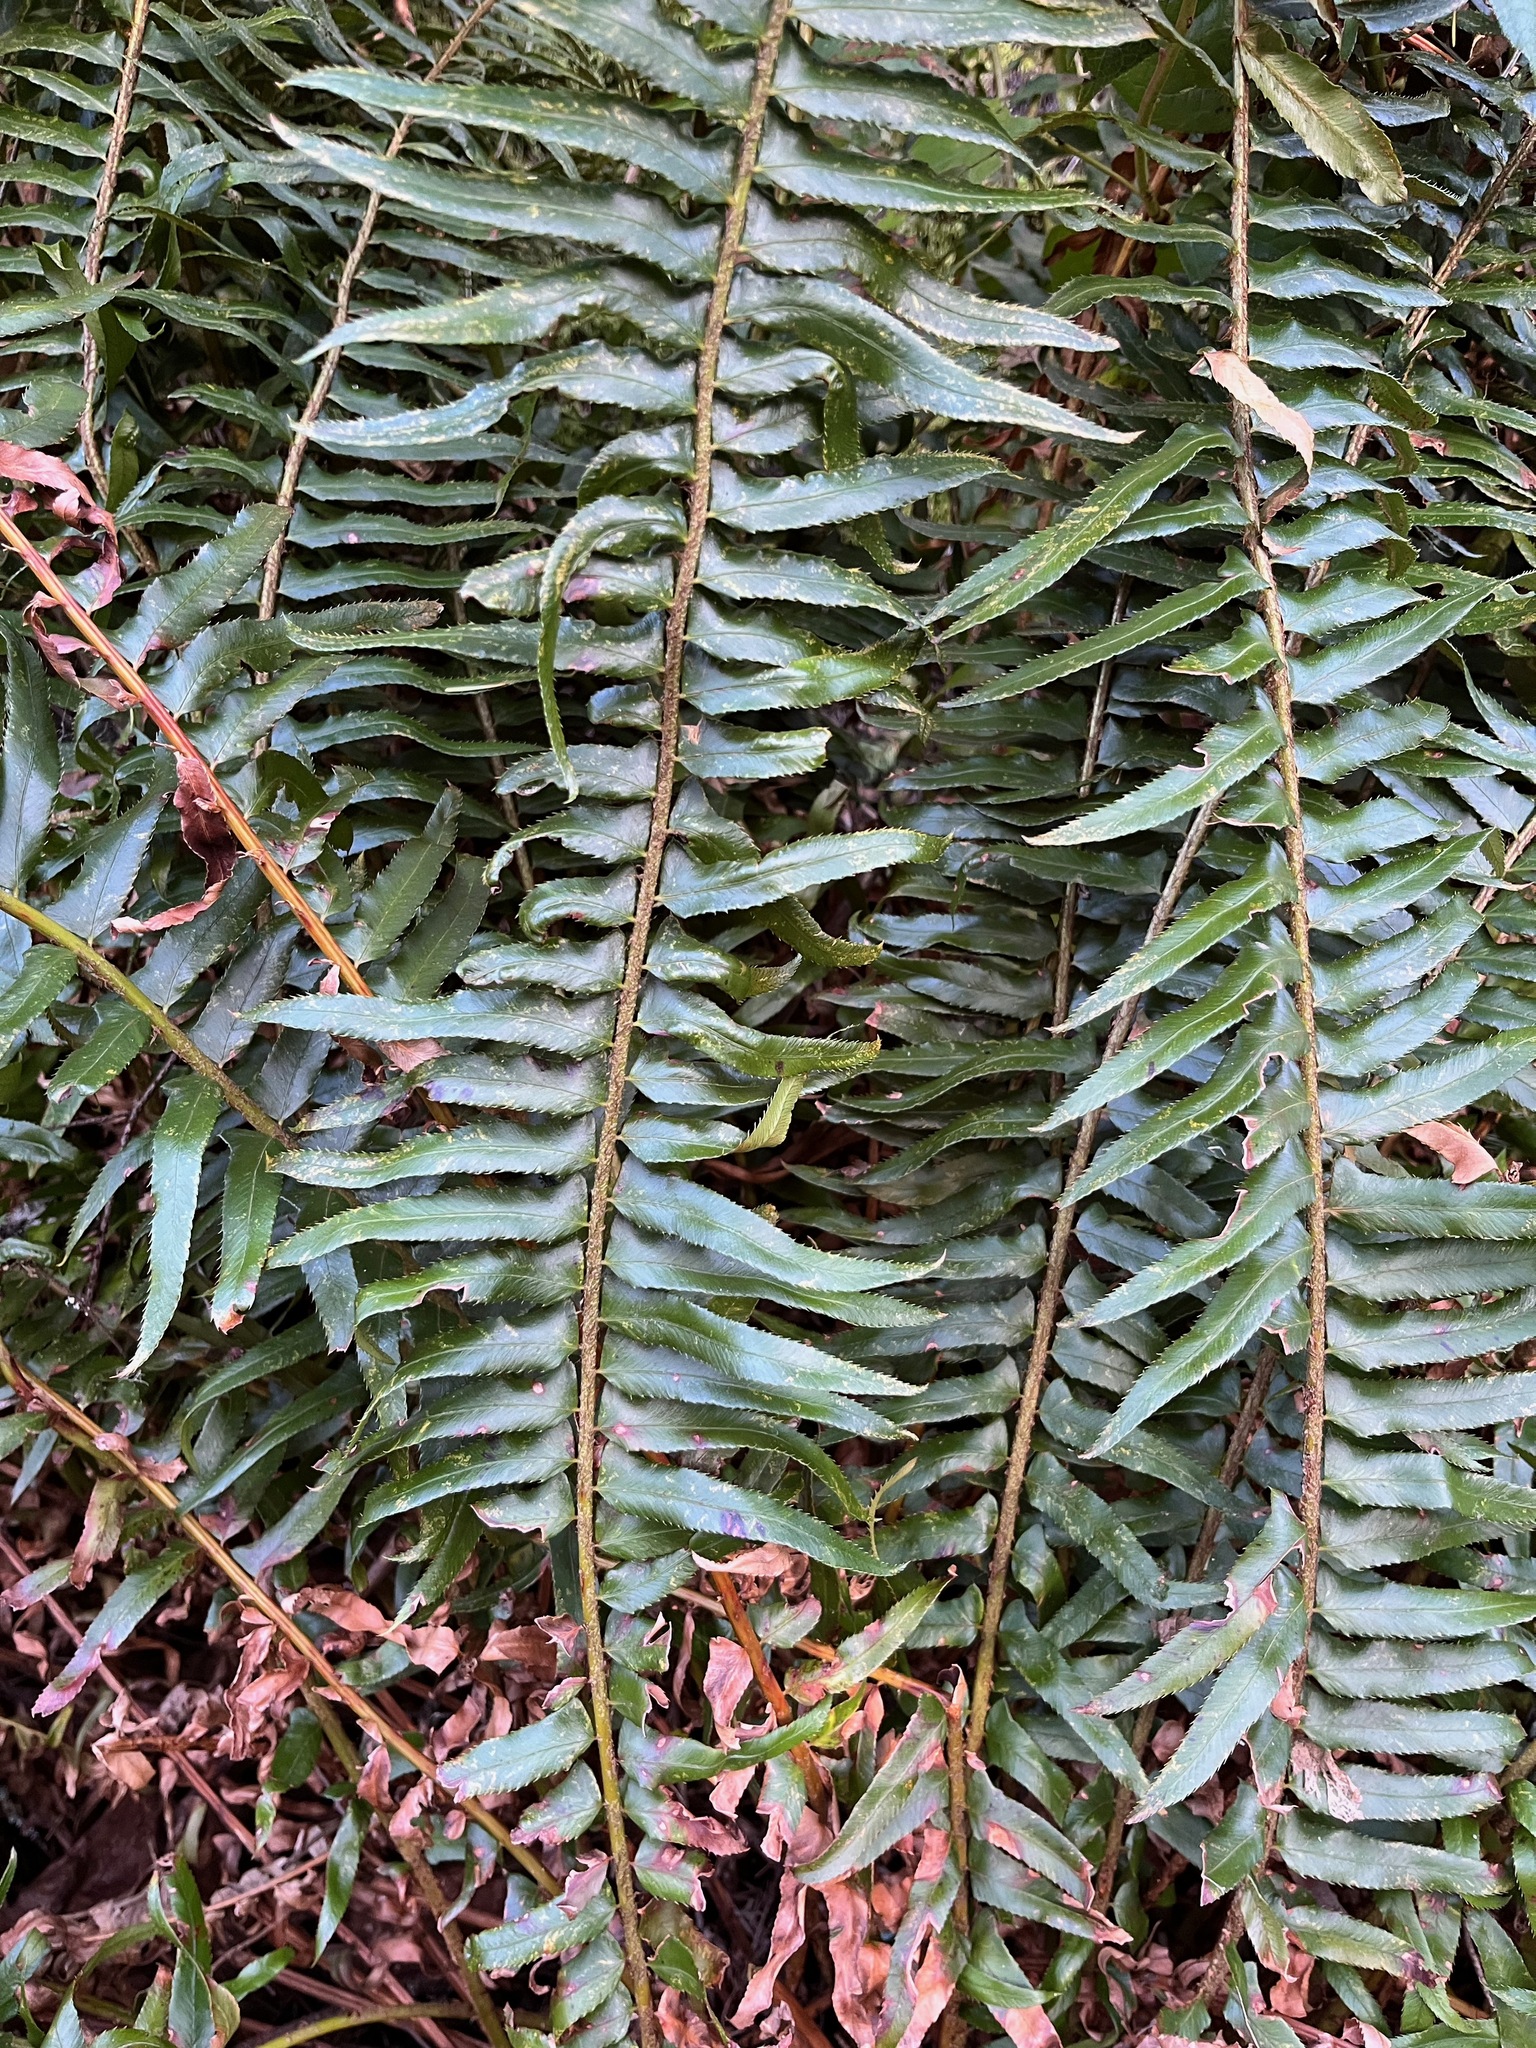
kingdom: Plantae
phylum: Tracheophyta
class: Polypodiopsida
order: Polypodiales
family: Dryopteridaceae
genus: Polystichum
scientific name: Polystichum munitum
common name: Western sword-fern
